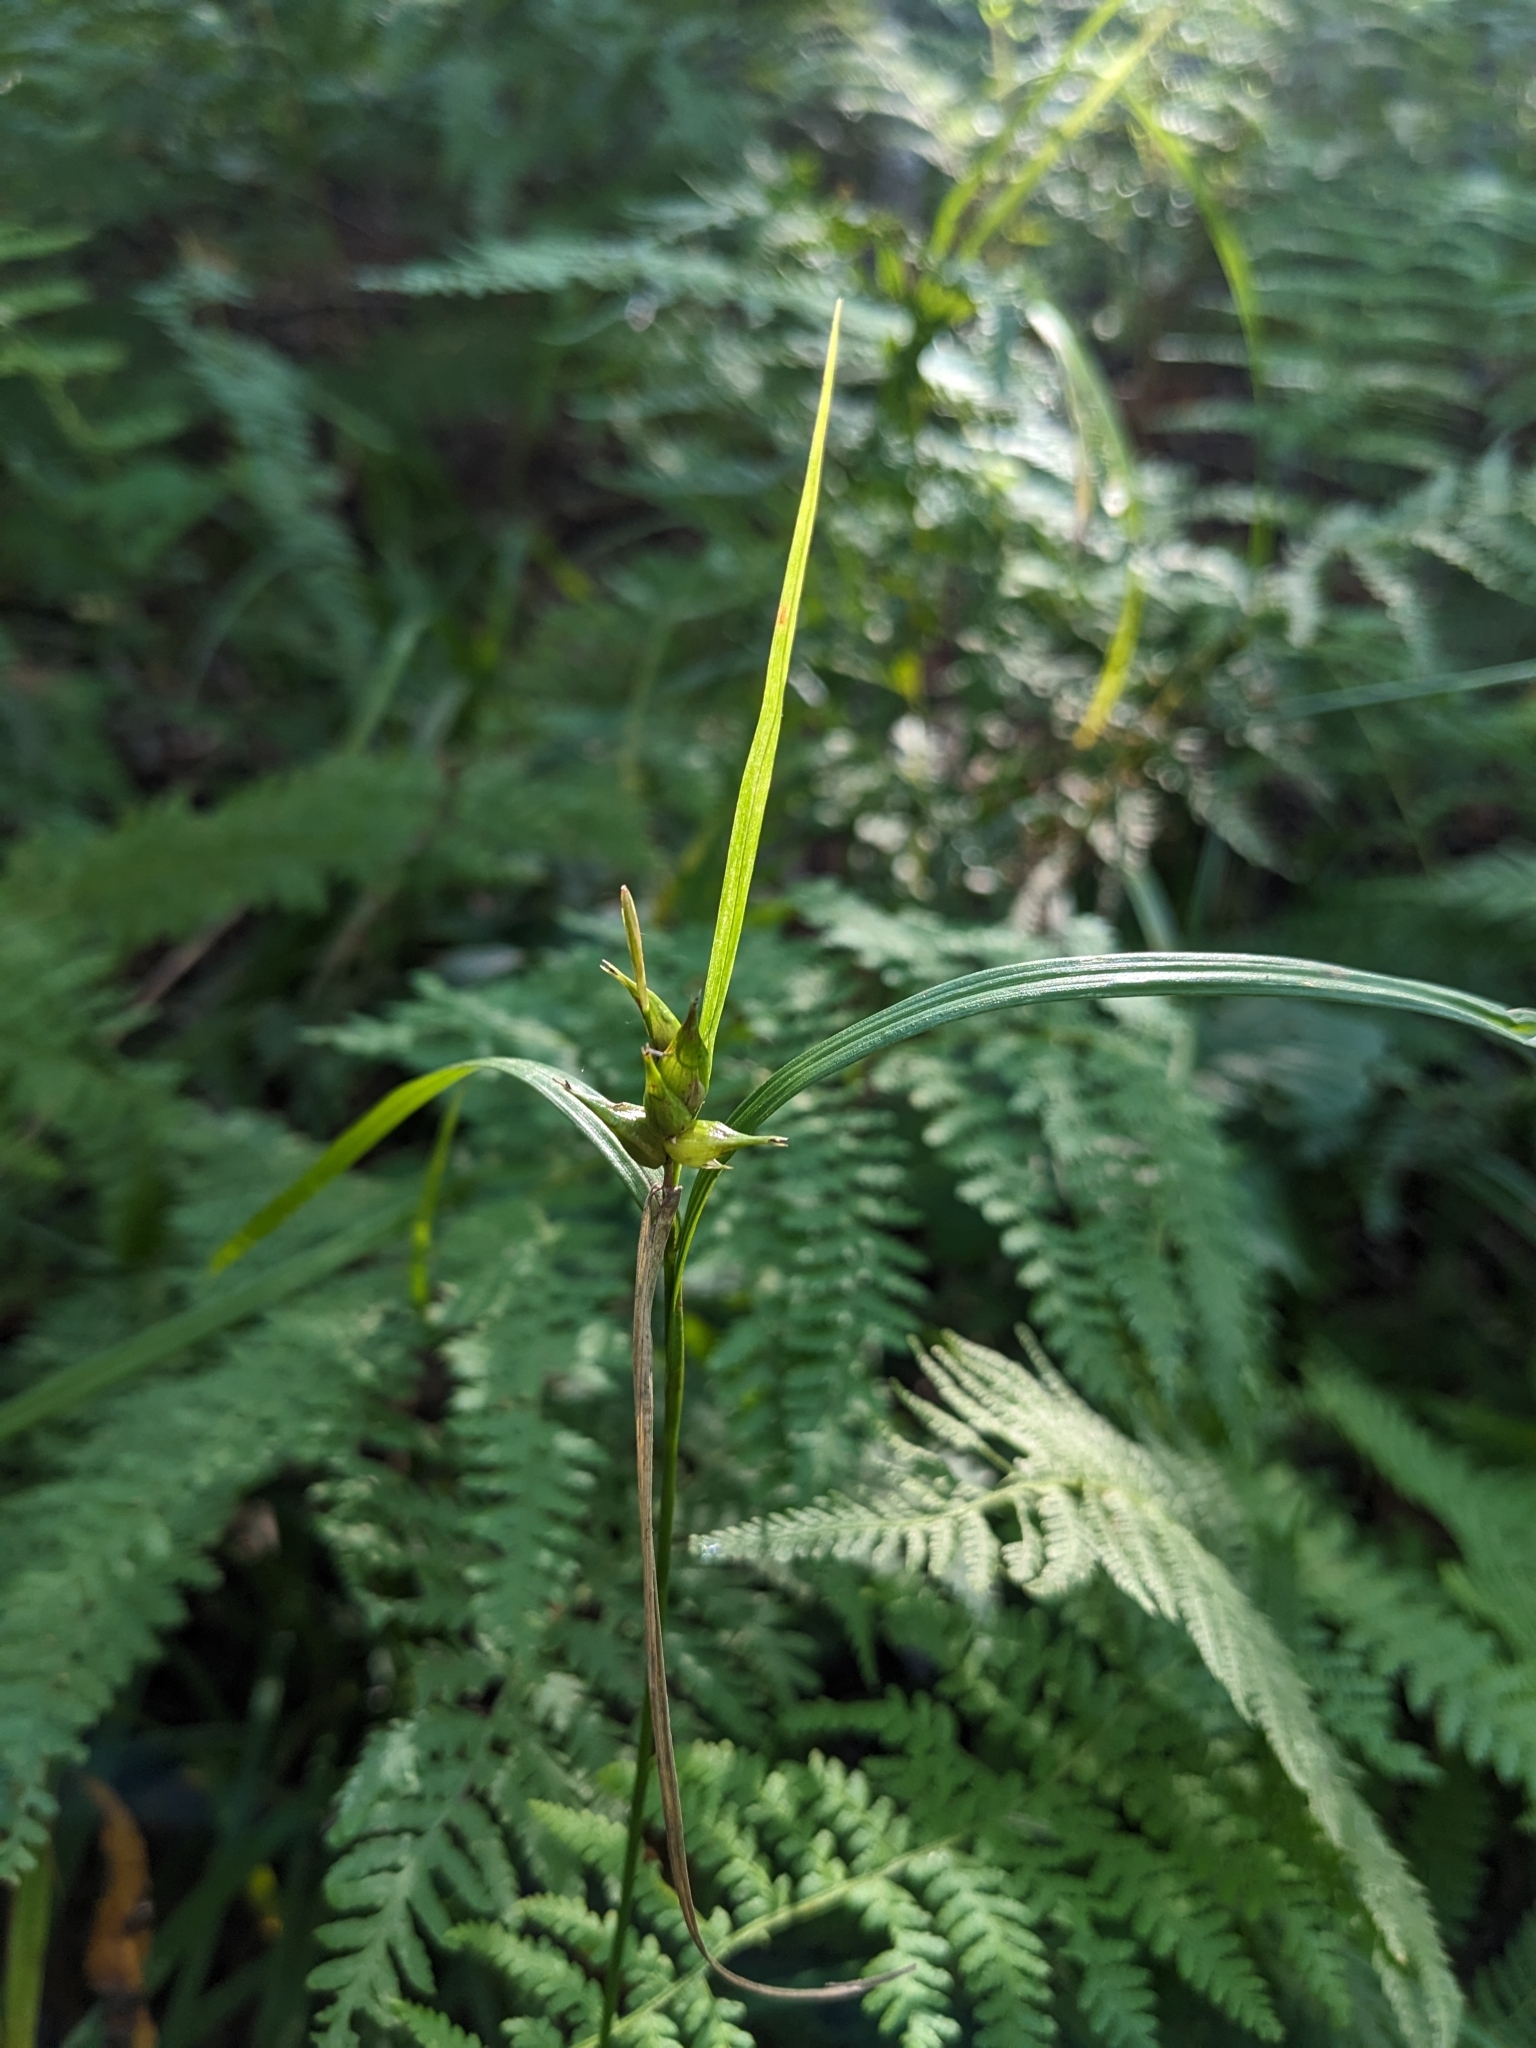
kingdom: Plantae
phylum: Tracheophyta
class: Liliopsida
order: Poales
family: Cyperaceae
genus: Carex
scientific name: Carex intumescens
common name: Greater bladder sedge
